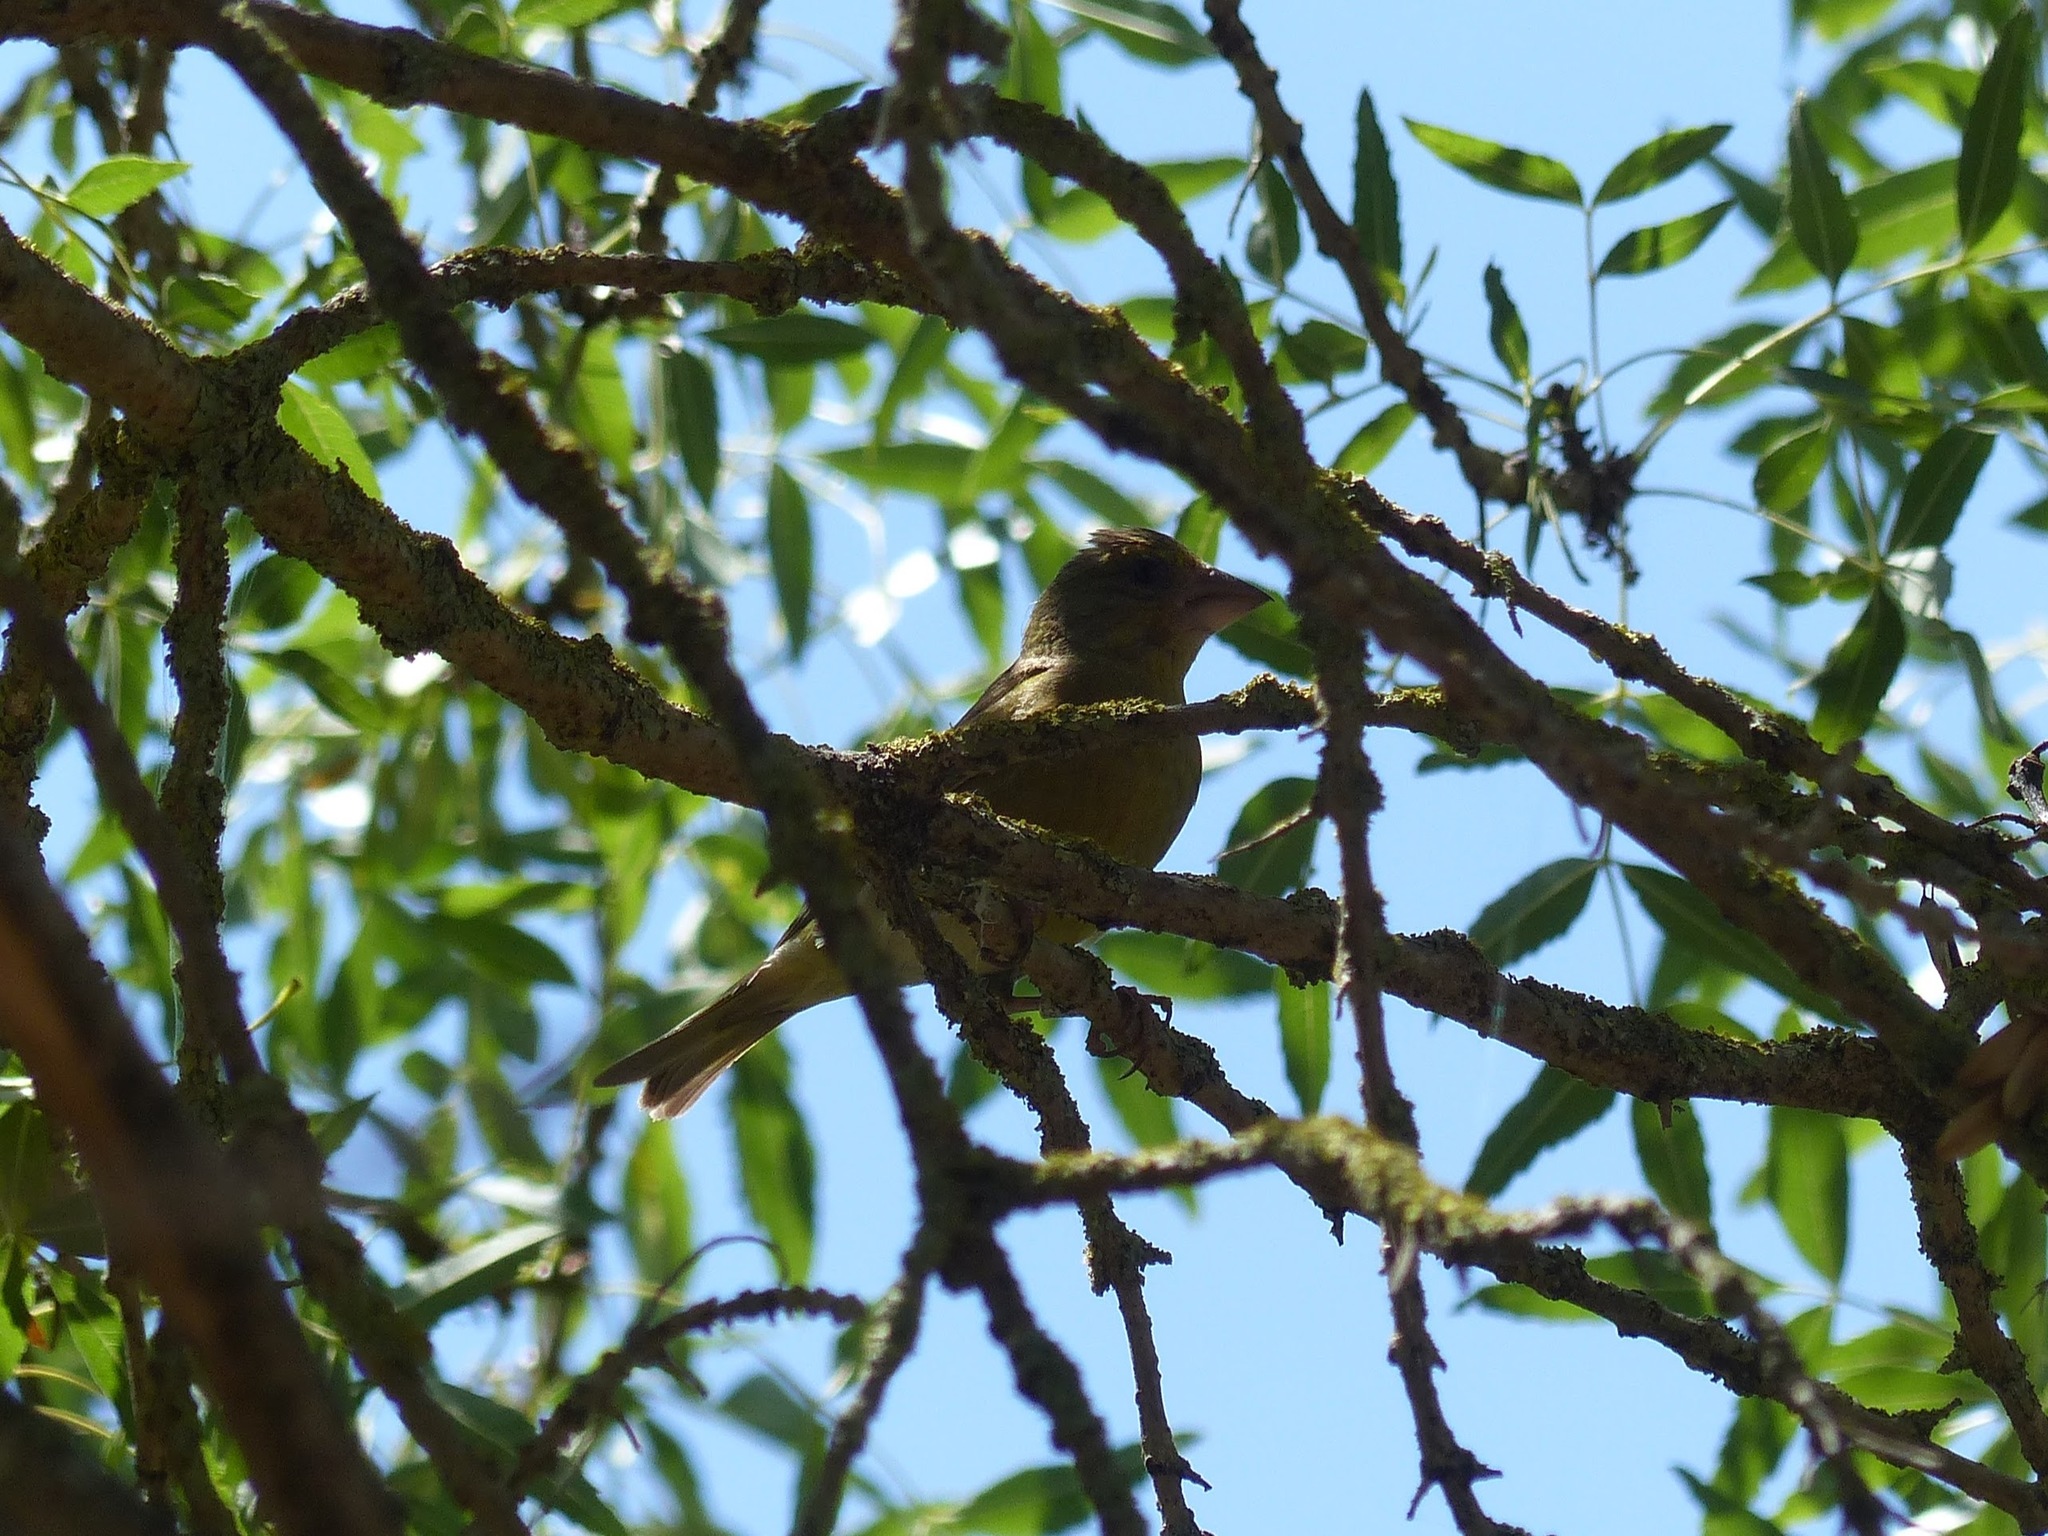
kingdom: Plantae
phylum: Tracheophyta
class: Liliopsida
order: Poales
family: Poaceae
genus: Chloris
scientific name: Chloris chloris
